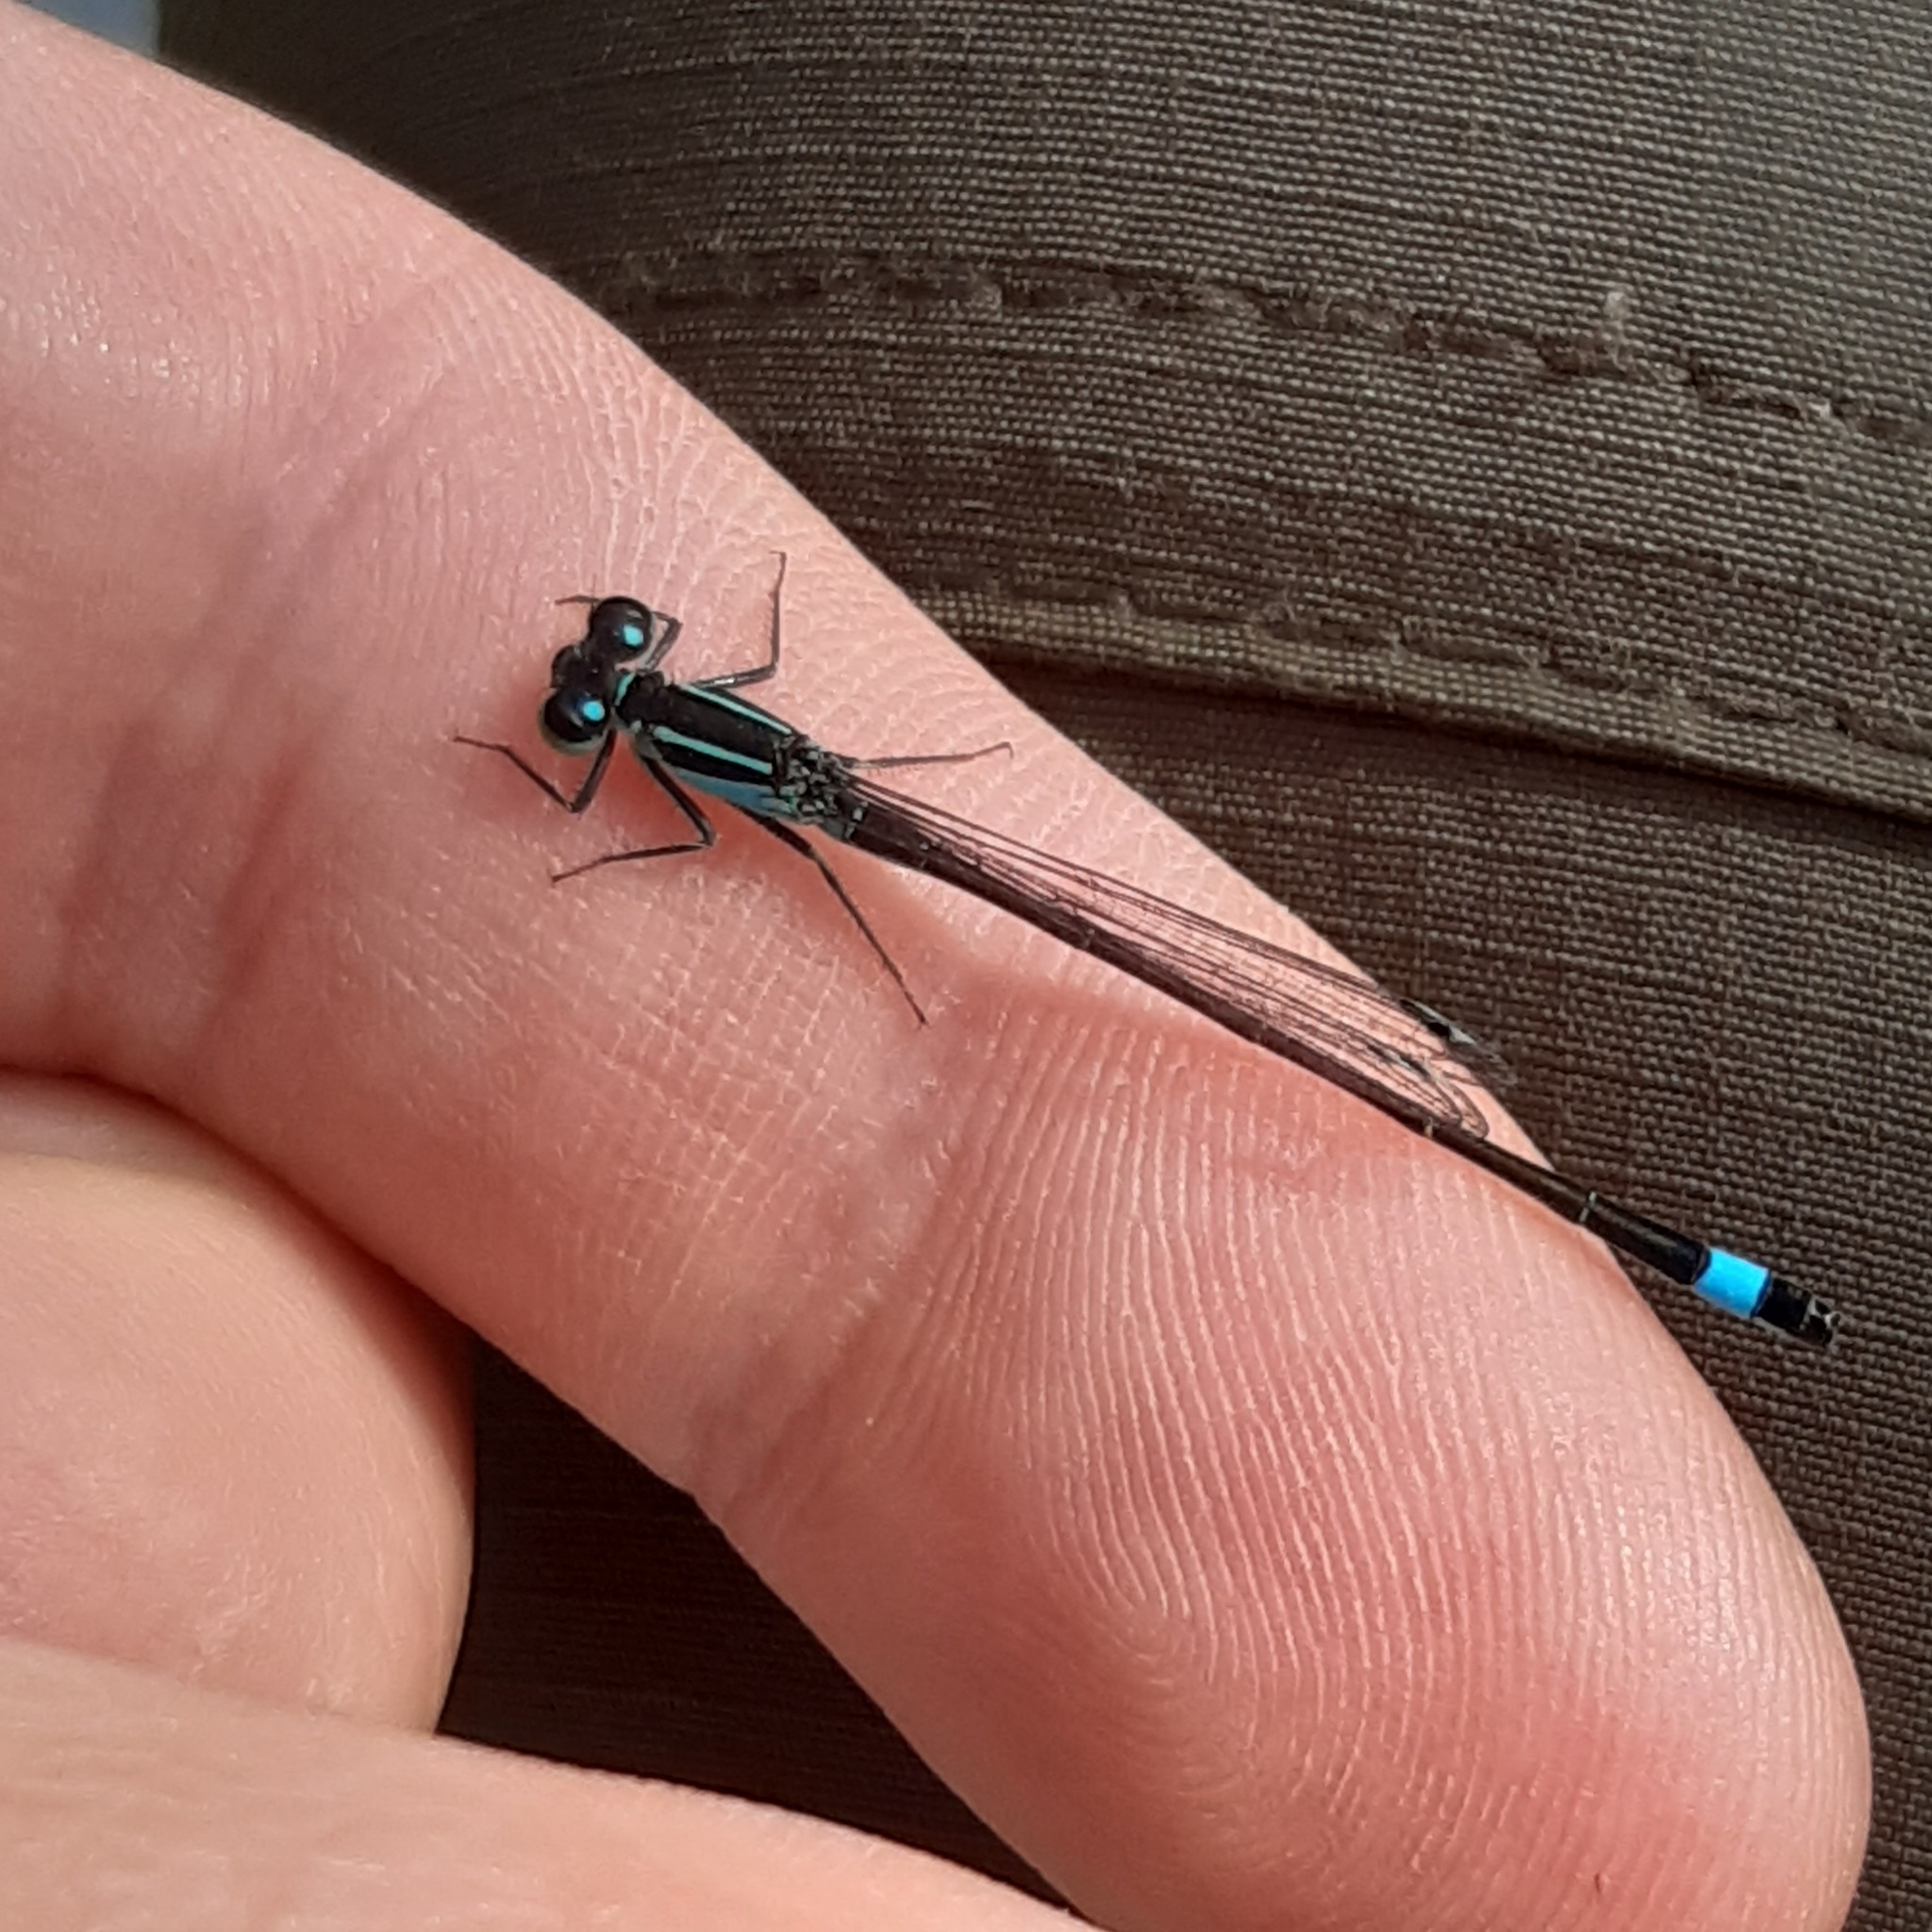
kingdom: Animalia
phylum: Arthropoda
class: Insecta
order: Odonata
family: Coenagrionidae
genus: Ischnura
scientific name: Ischnura elegans
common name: Blue-tailed damselfly
